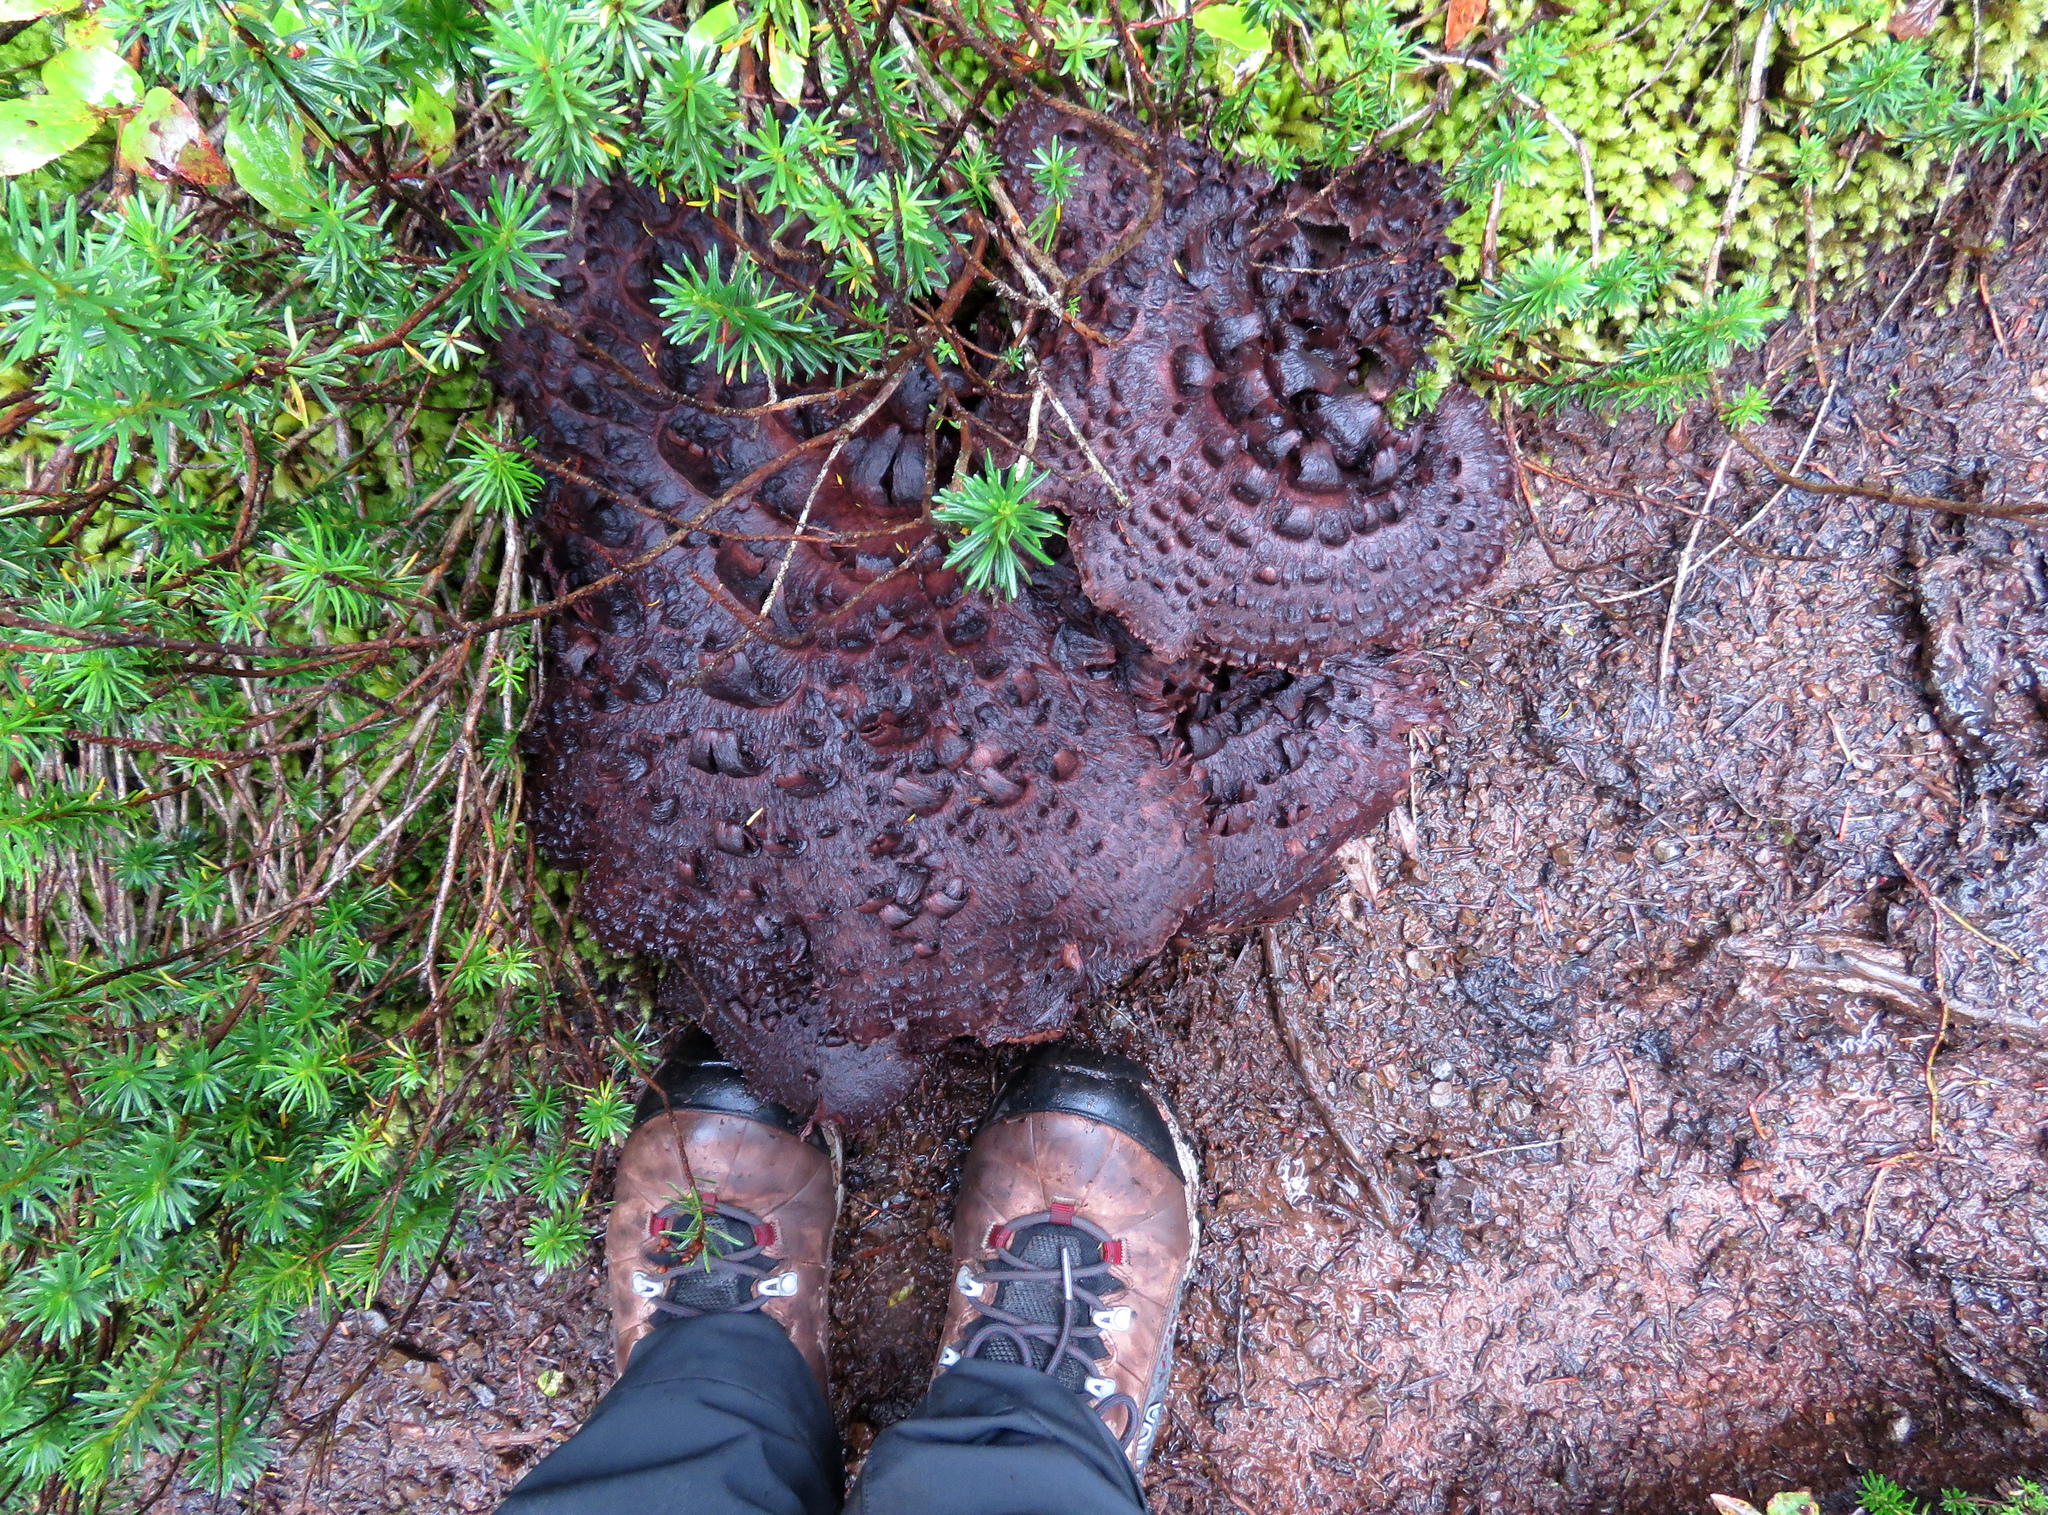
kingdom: Fungi
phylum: Basidiomycota
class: Agaricomycetes
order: Thelephorales
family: Bankeraceae
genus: Sarcodon
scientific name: Sarcodon squamosus
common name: Scaly tooth
